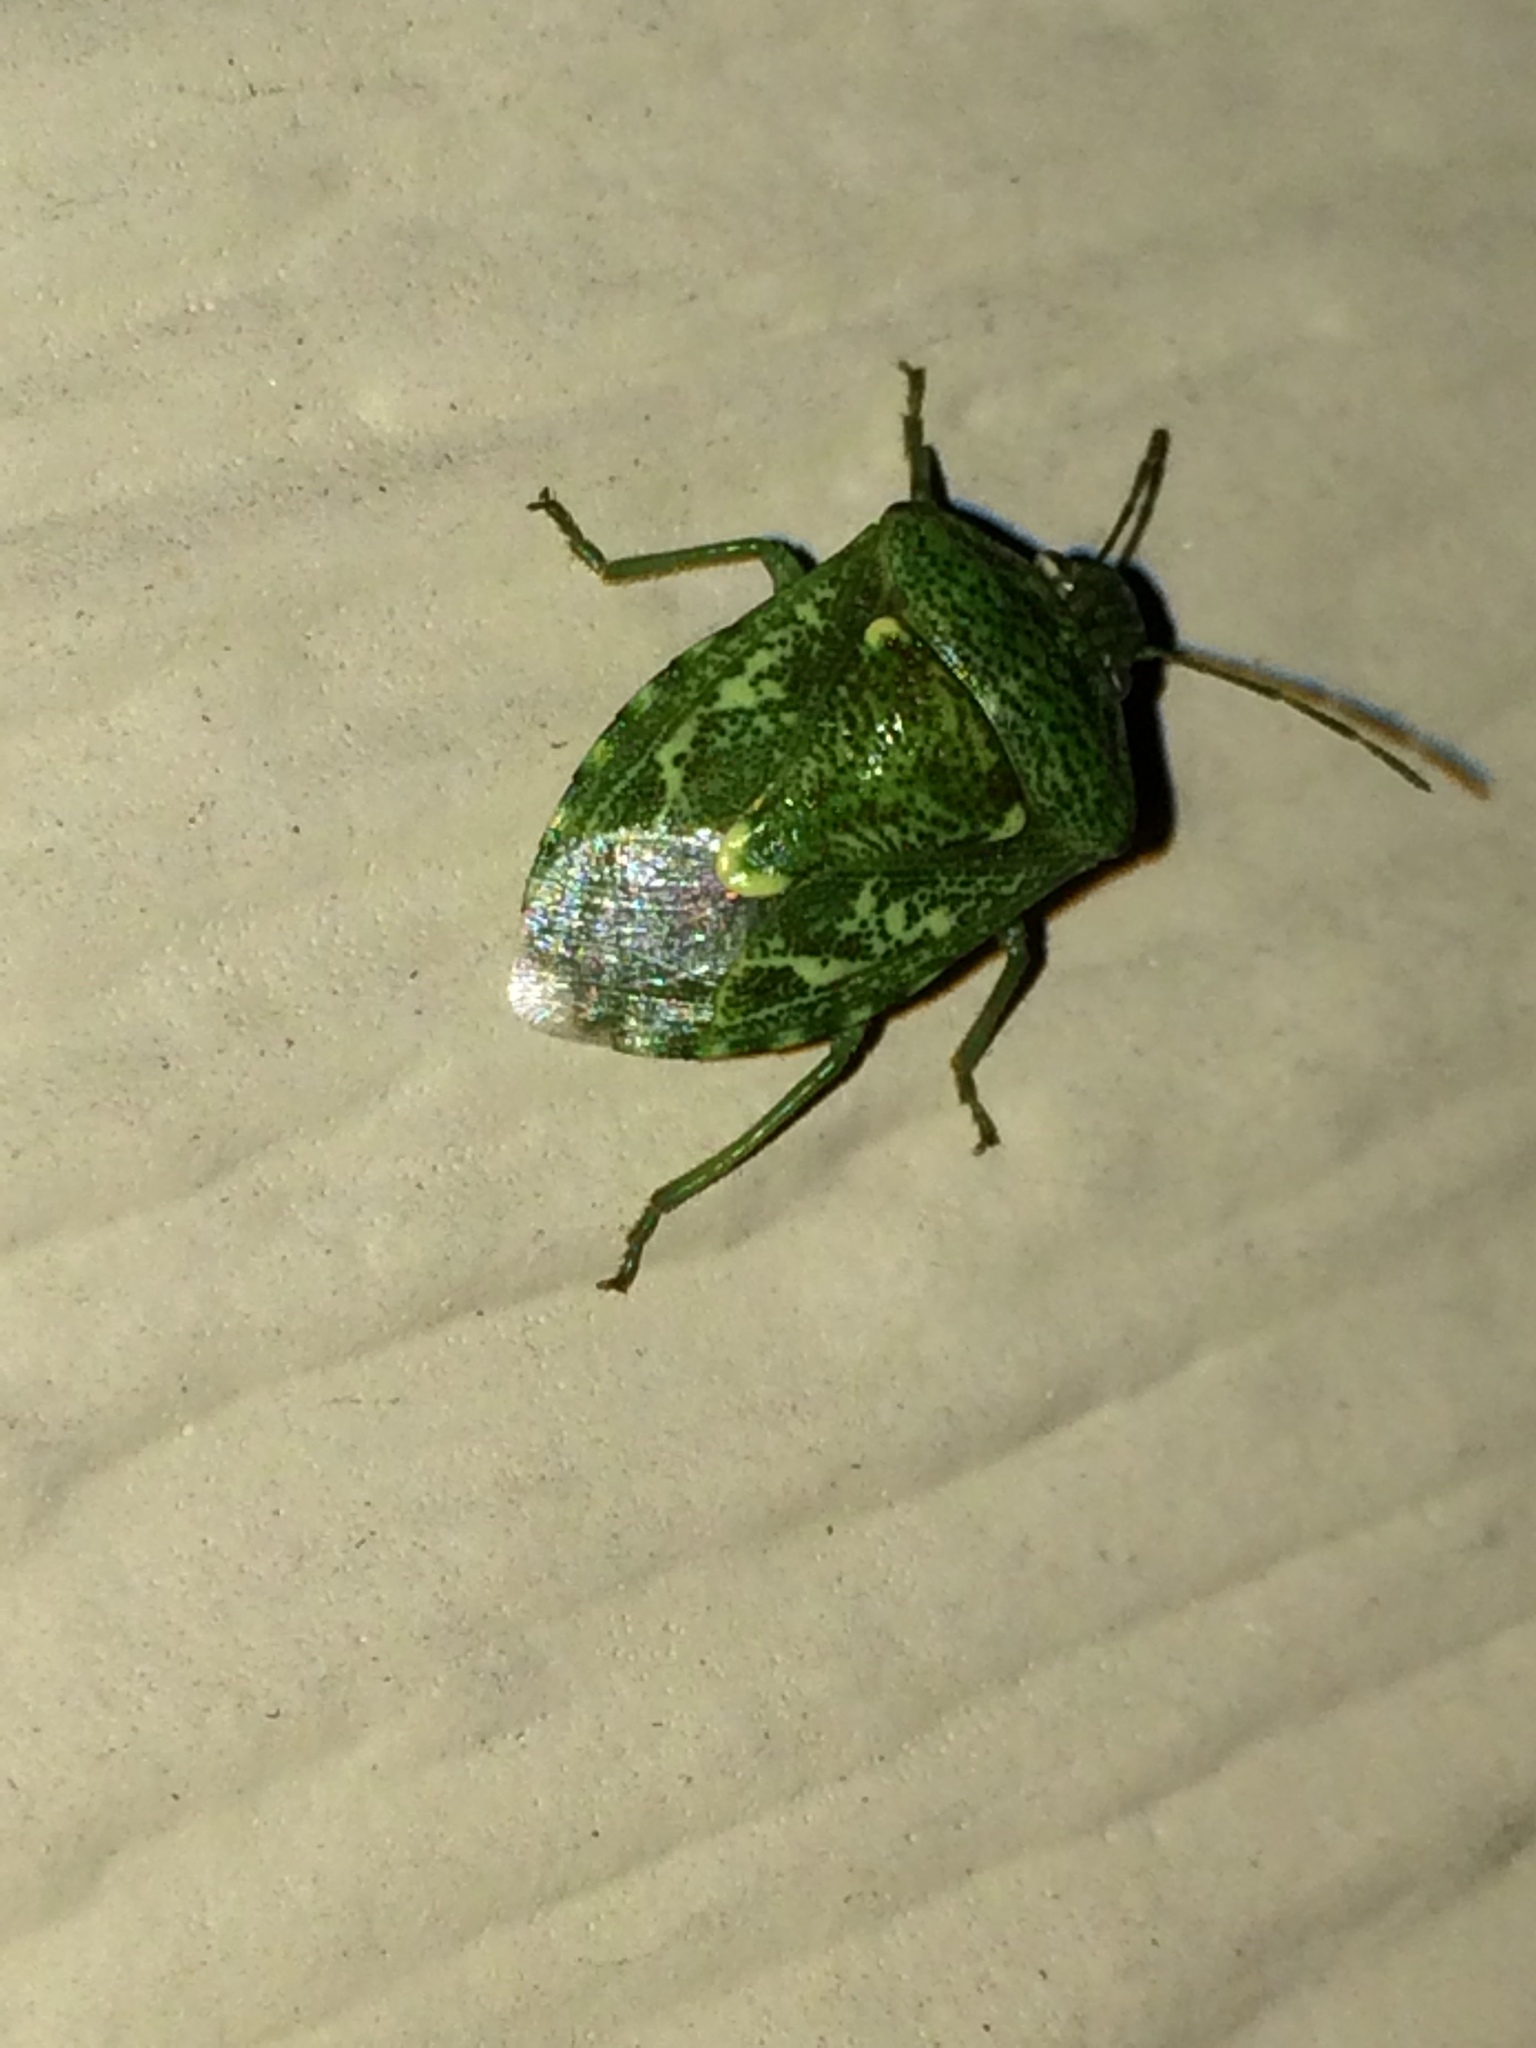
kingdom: Animalia
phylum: Arthropoda
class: Insecta
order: Hemiptera
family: Pentatomidae
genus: Banasa
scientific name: Banasa euchlora
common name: Cedar berry bug
